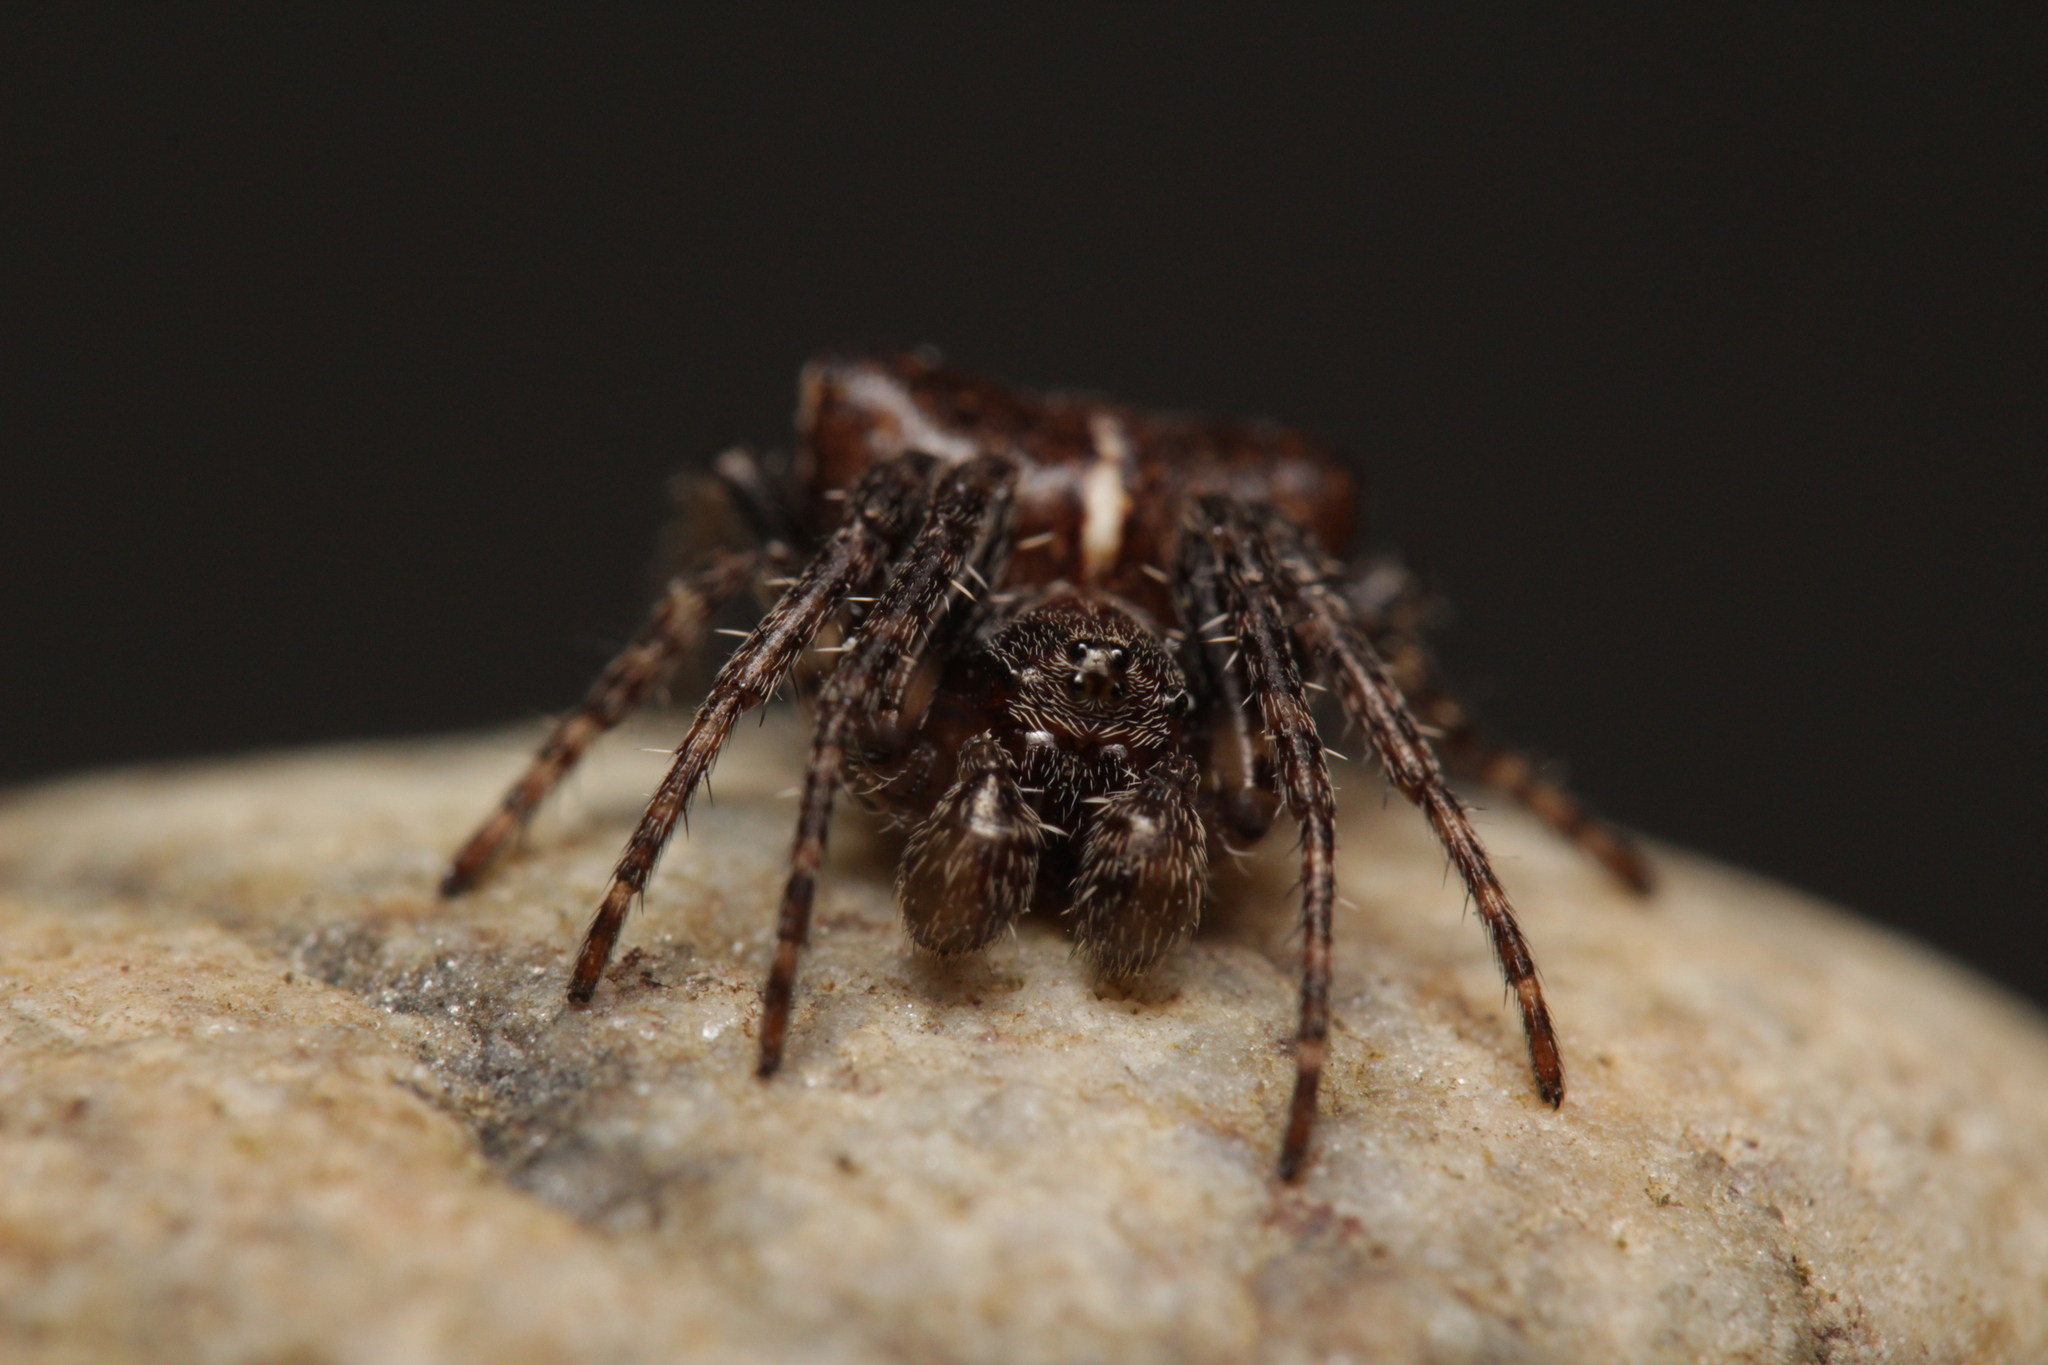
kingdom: Animalia
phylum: Arthropoda
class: Arachnida
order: Araneae
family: Araneidae
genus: Gibbaranea
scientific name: Gibbaranea bituberculata
